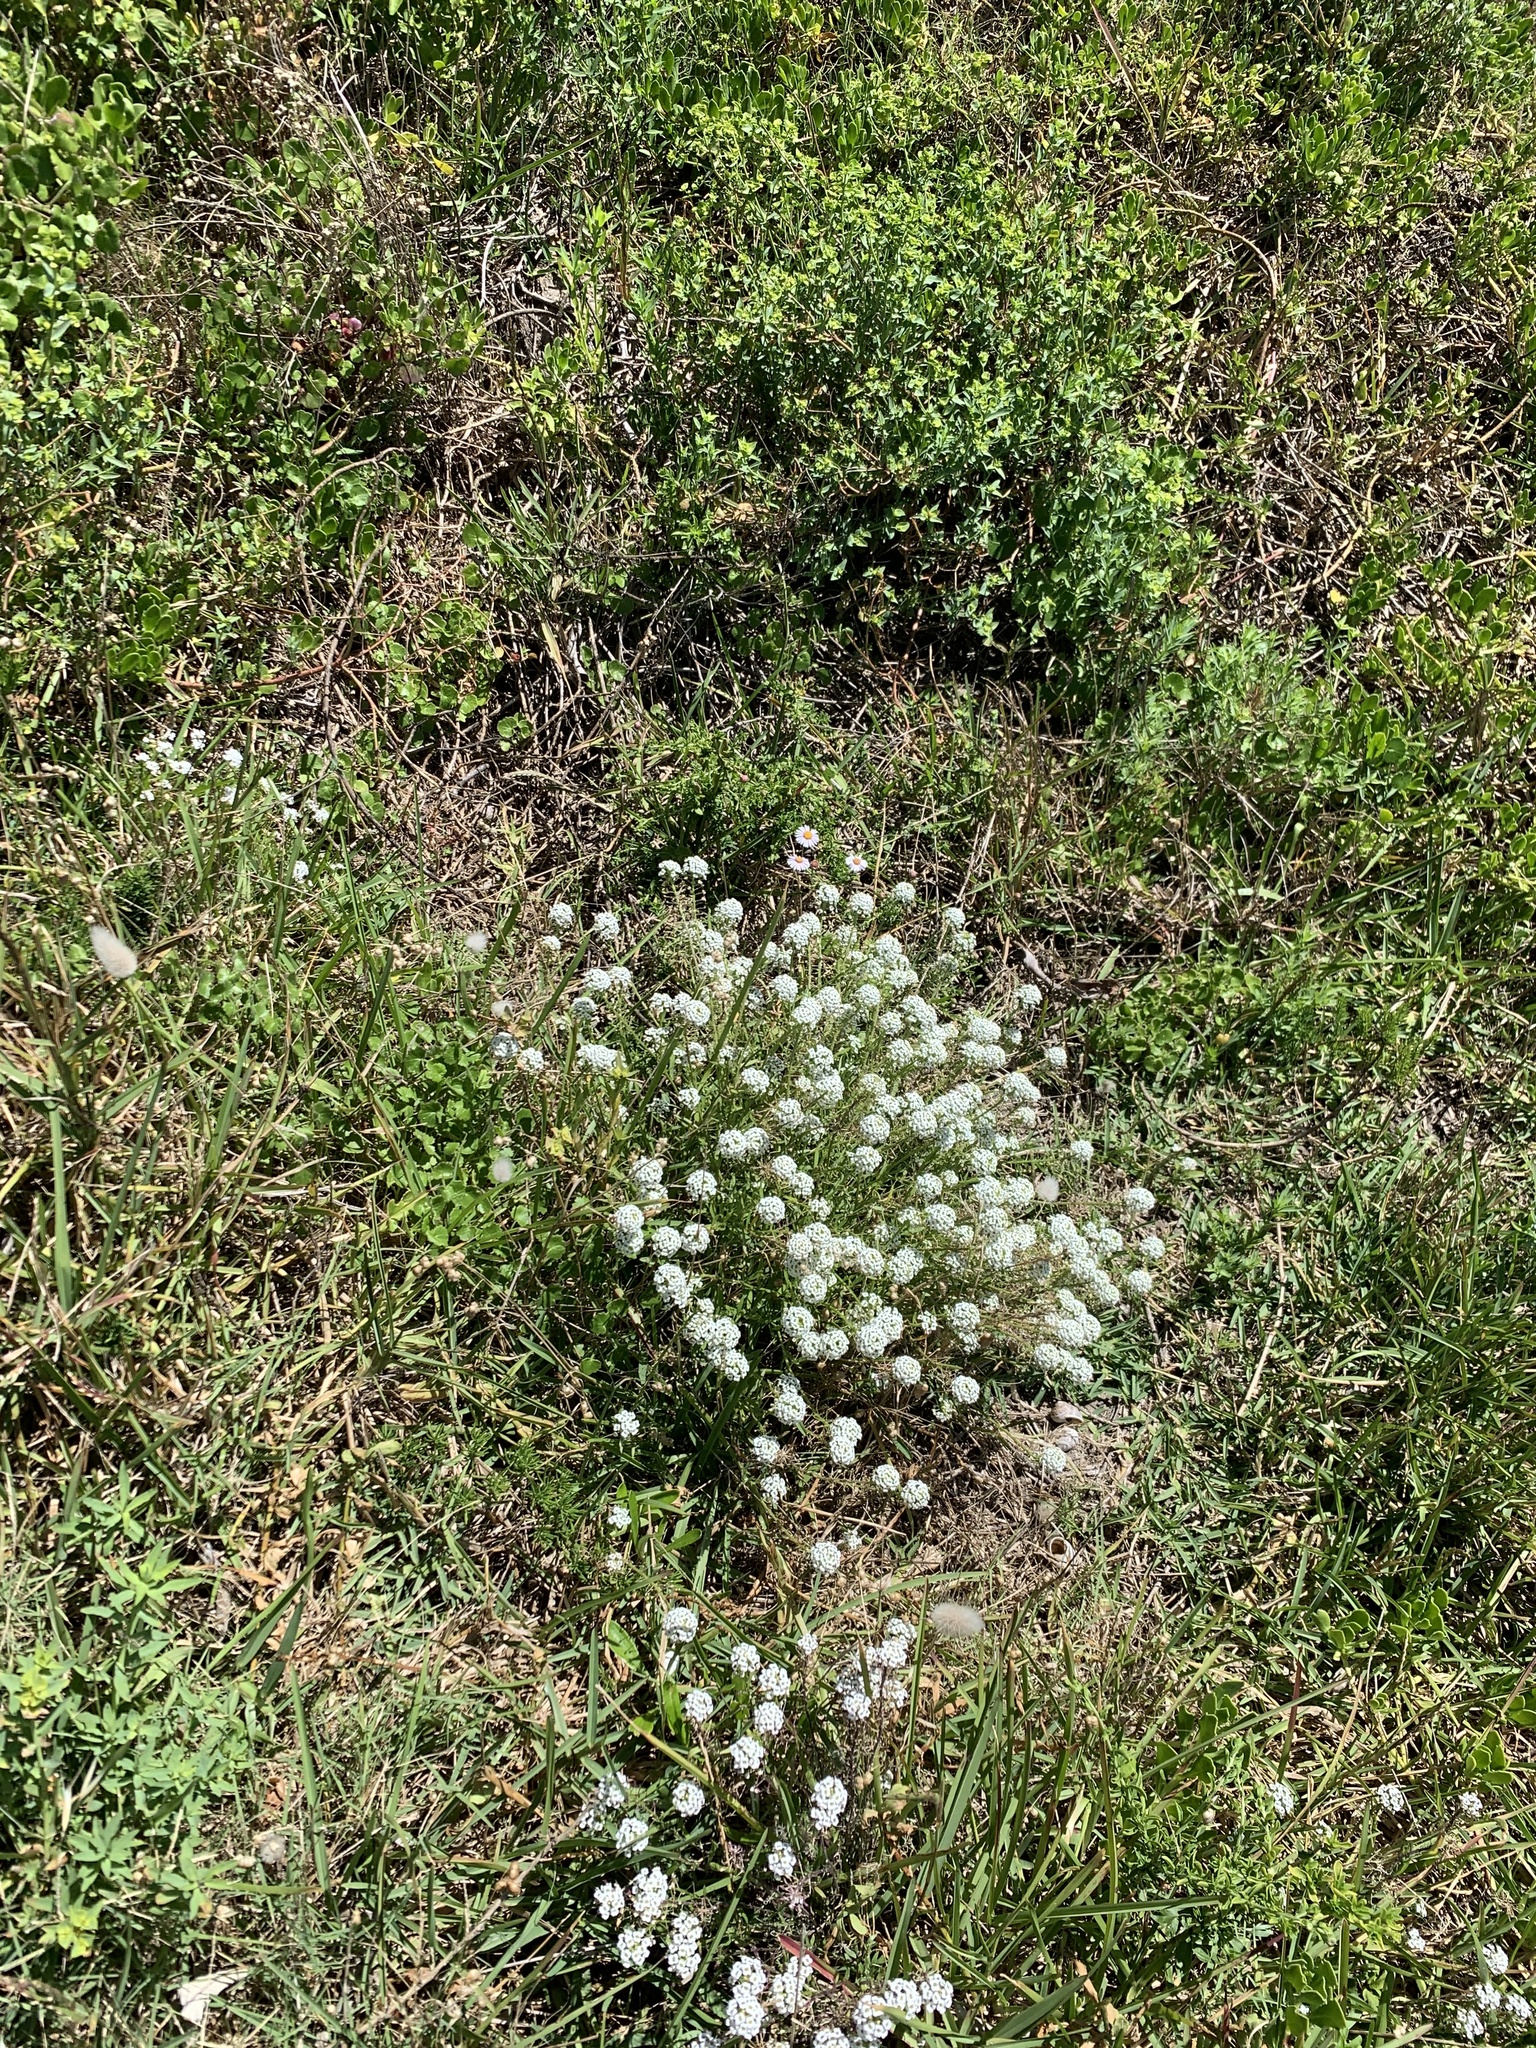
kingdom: Plantae
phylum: Tracheophyta
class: Magnoliopsida
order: Brassicales
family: Brassicaceae
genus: Lobularia
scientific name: Lobularia maritima
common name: Sweet alison
